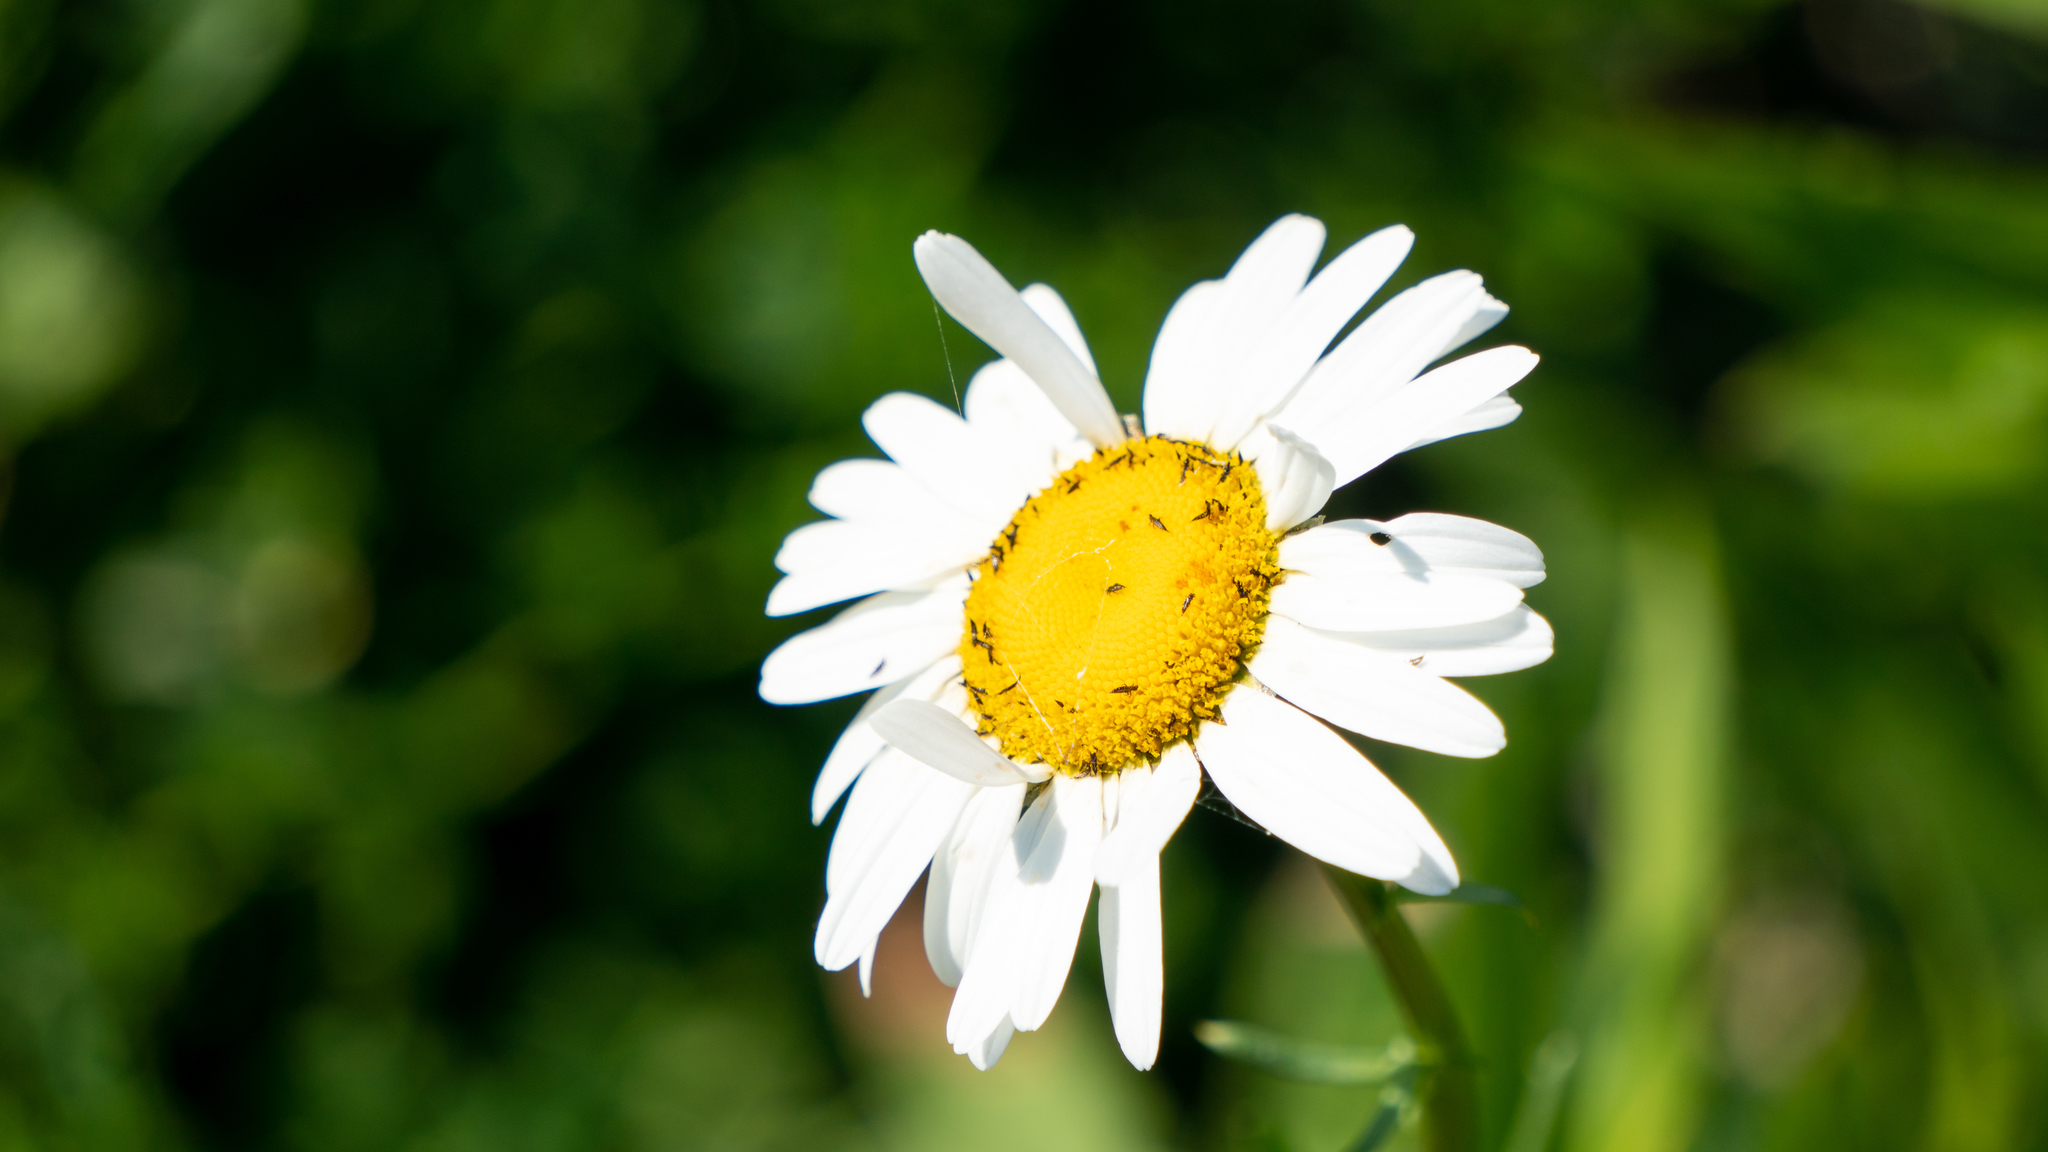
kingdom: Plantae
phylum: Tracheophyta
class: Magnoliopsida
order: Asterales
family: Asteraceae
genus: Leucanthemum
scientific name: Leucanthemum vulgare
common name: Oxeye daisy
